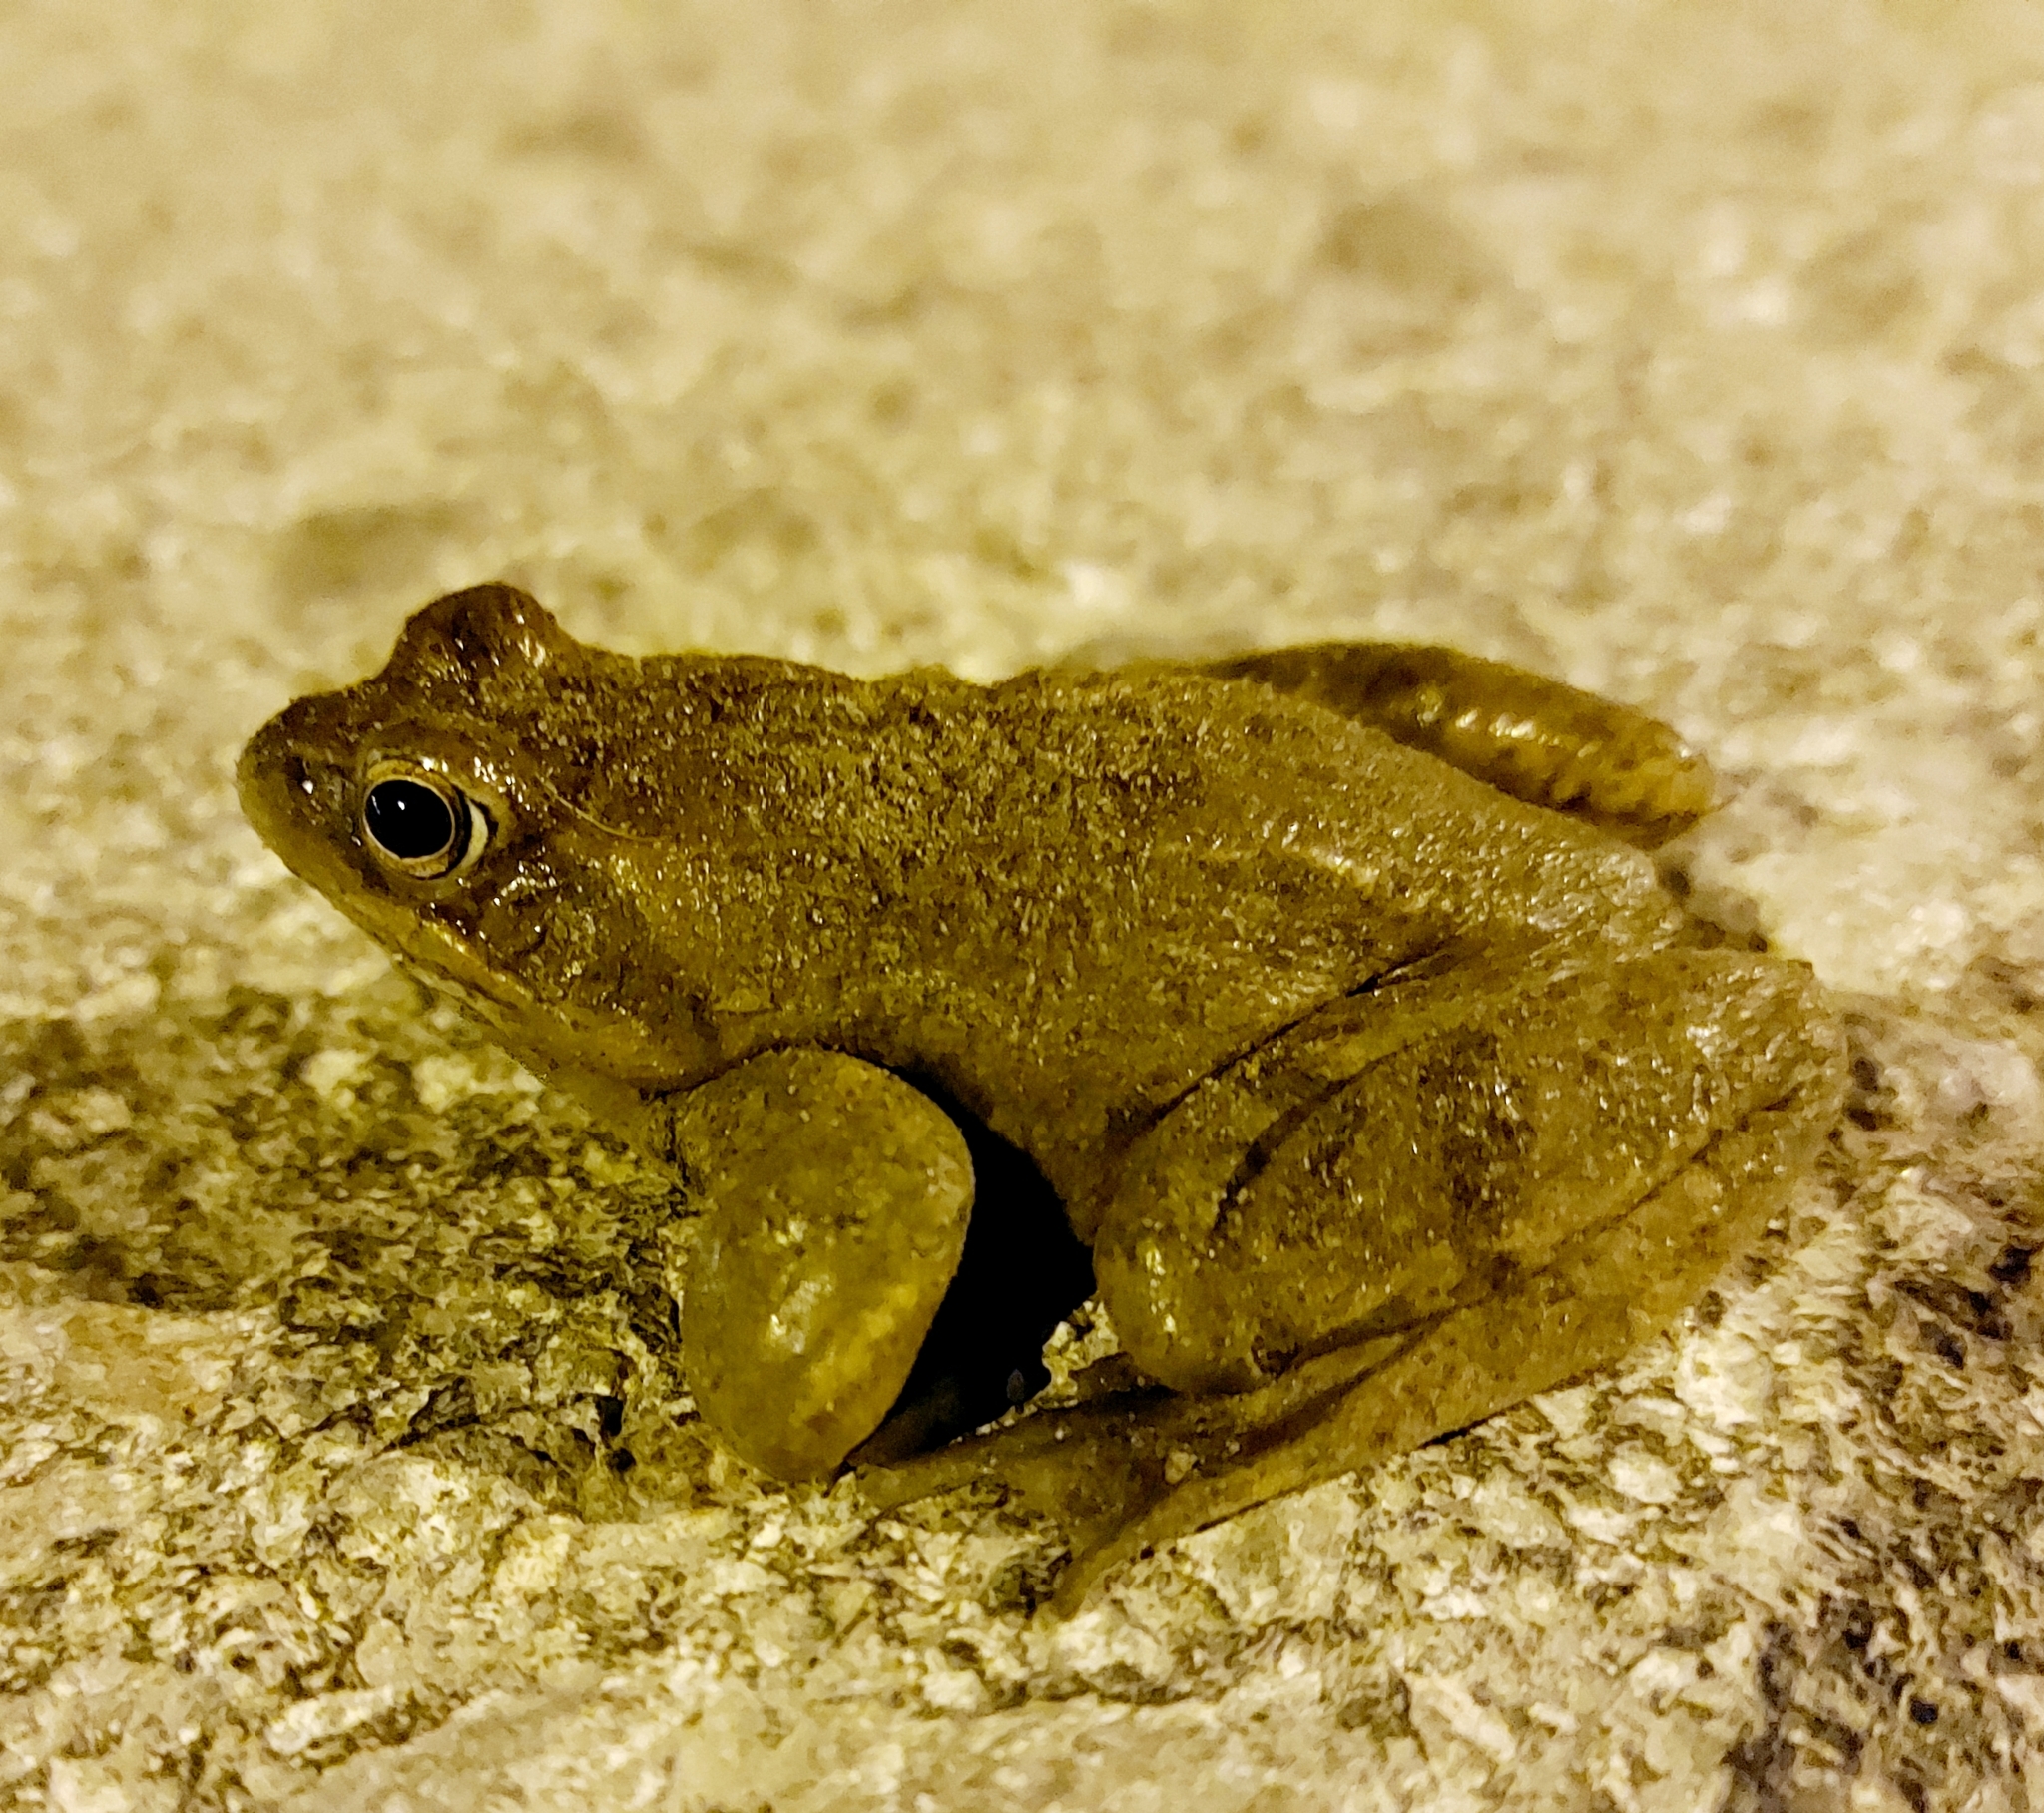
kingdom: Animalia
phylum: Chordata
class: Amphibia
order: Anura
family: Ranidae
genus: Rana
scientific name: Rana arvalis
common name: Moor frog
